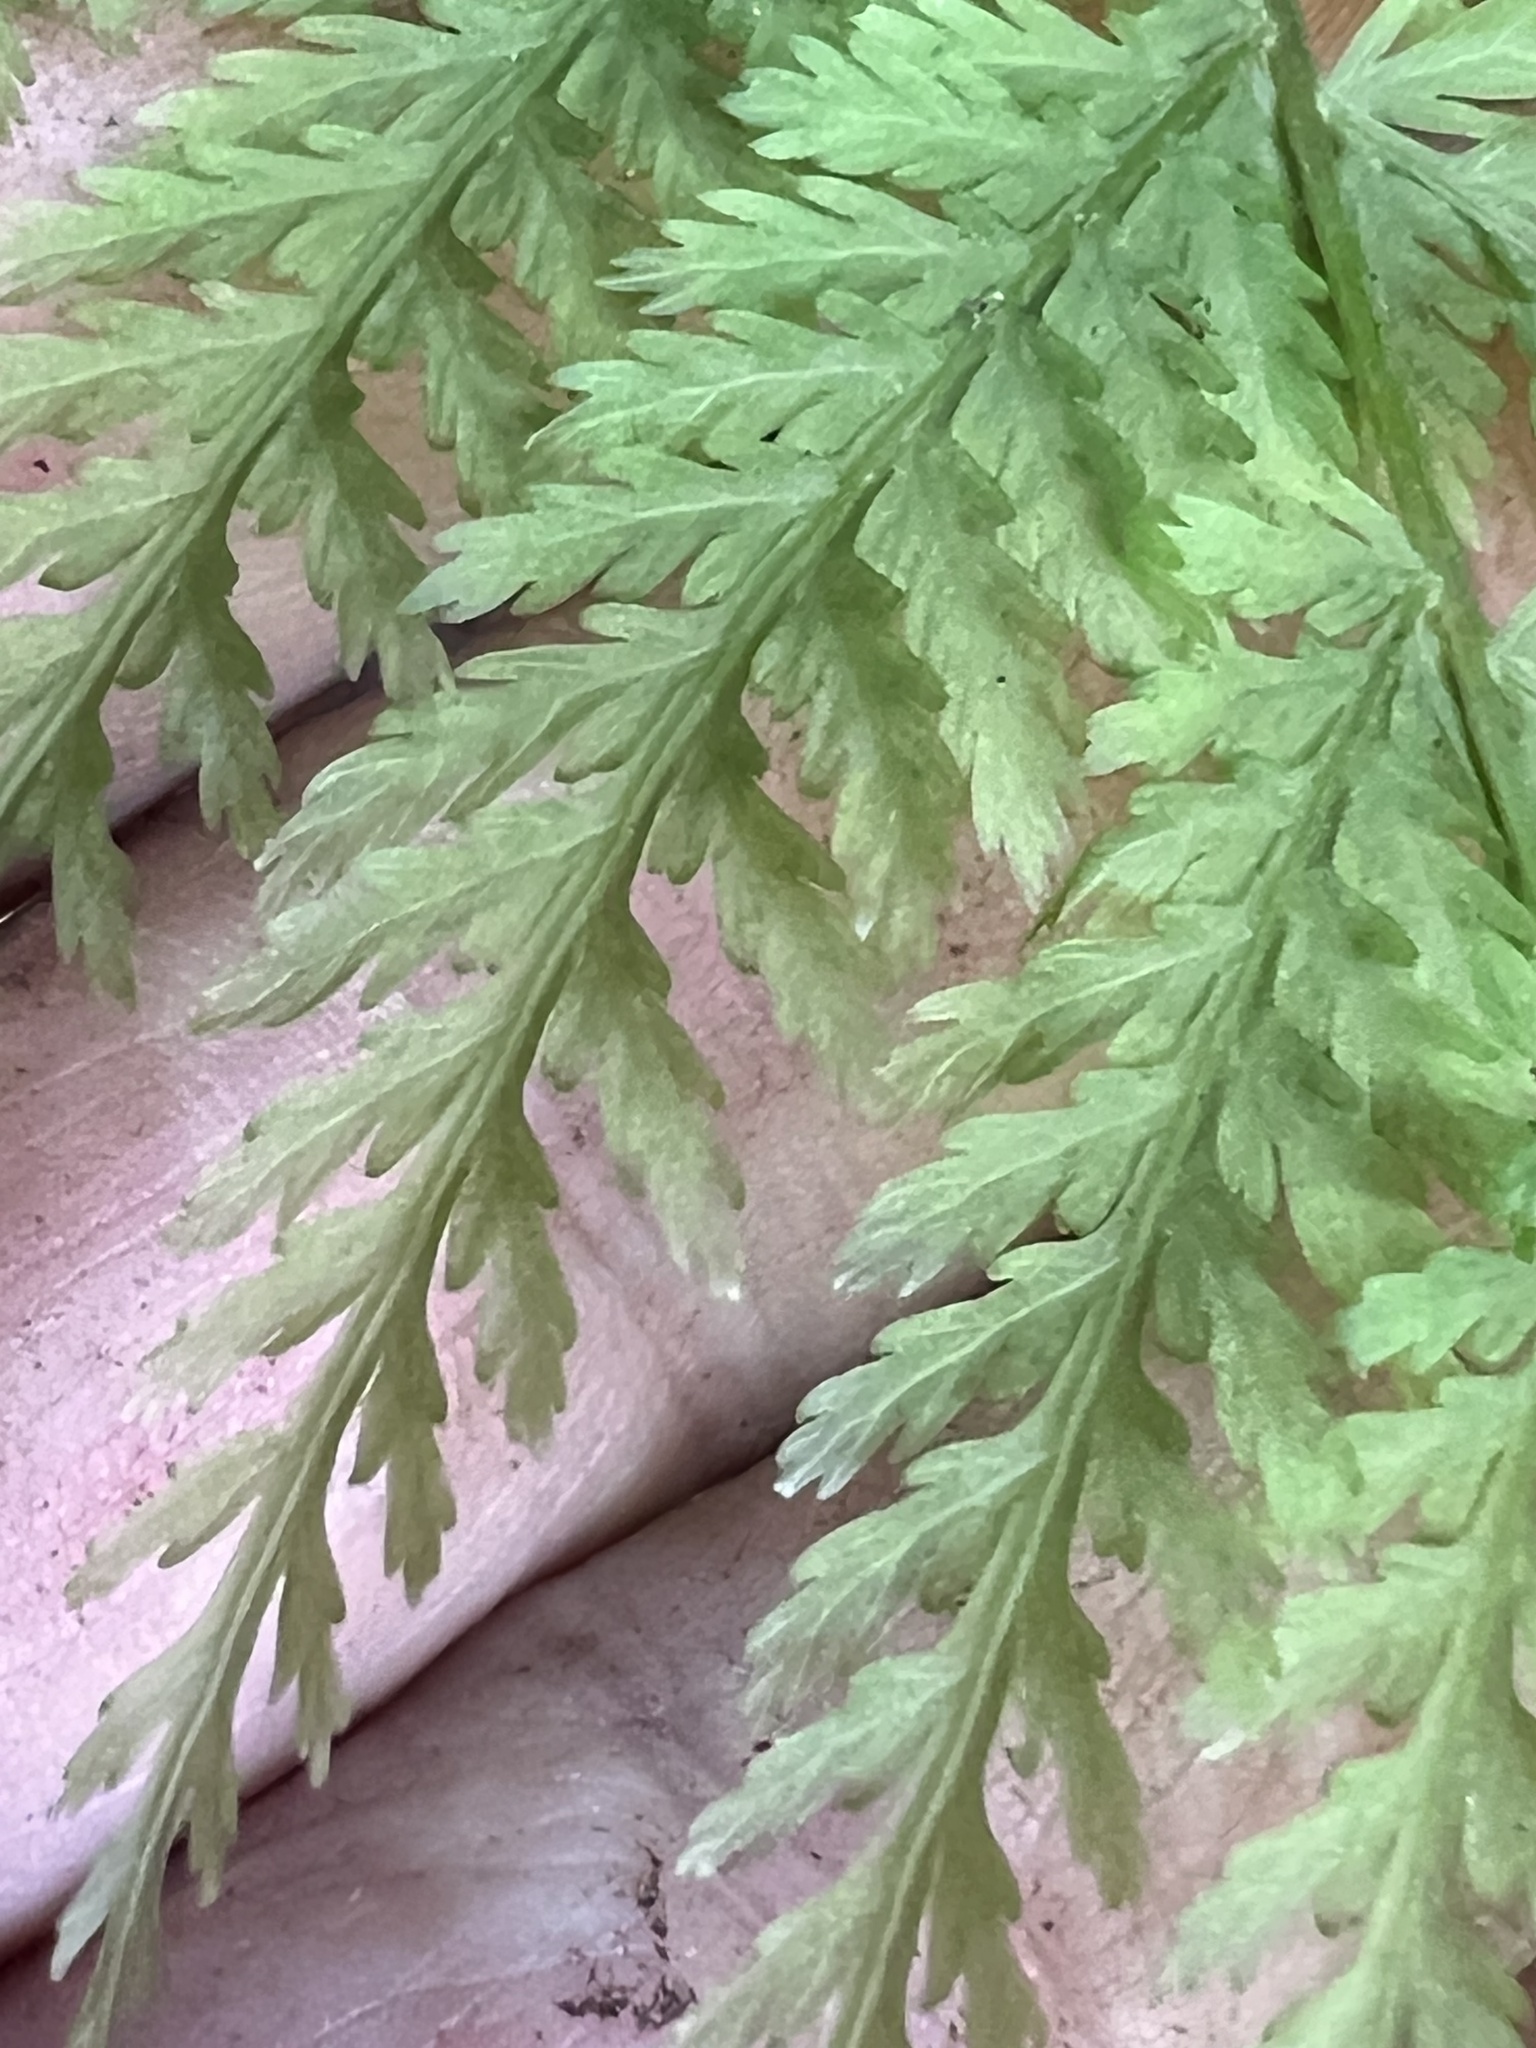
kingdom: Plantae
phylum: Tracheophyta
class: Polypodiopsida
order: Osmundales
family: Osmundaceae
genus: Leptopteris
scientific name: Leptopteris hymenophylloides
